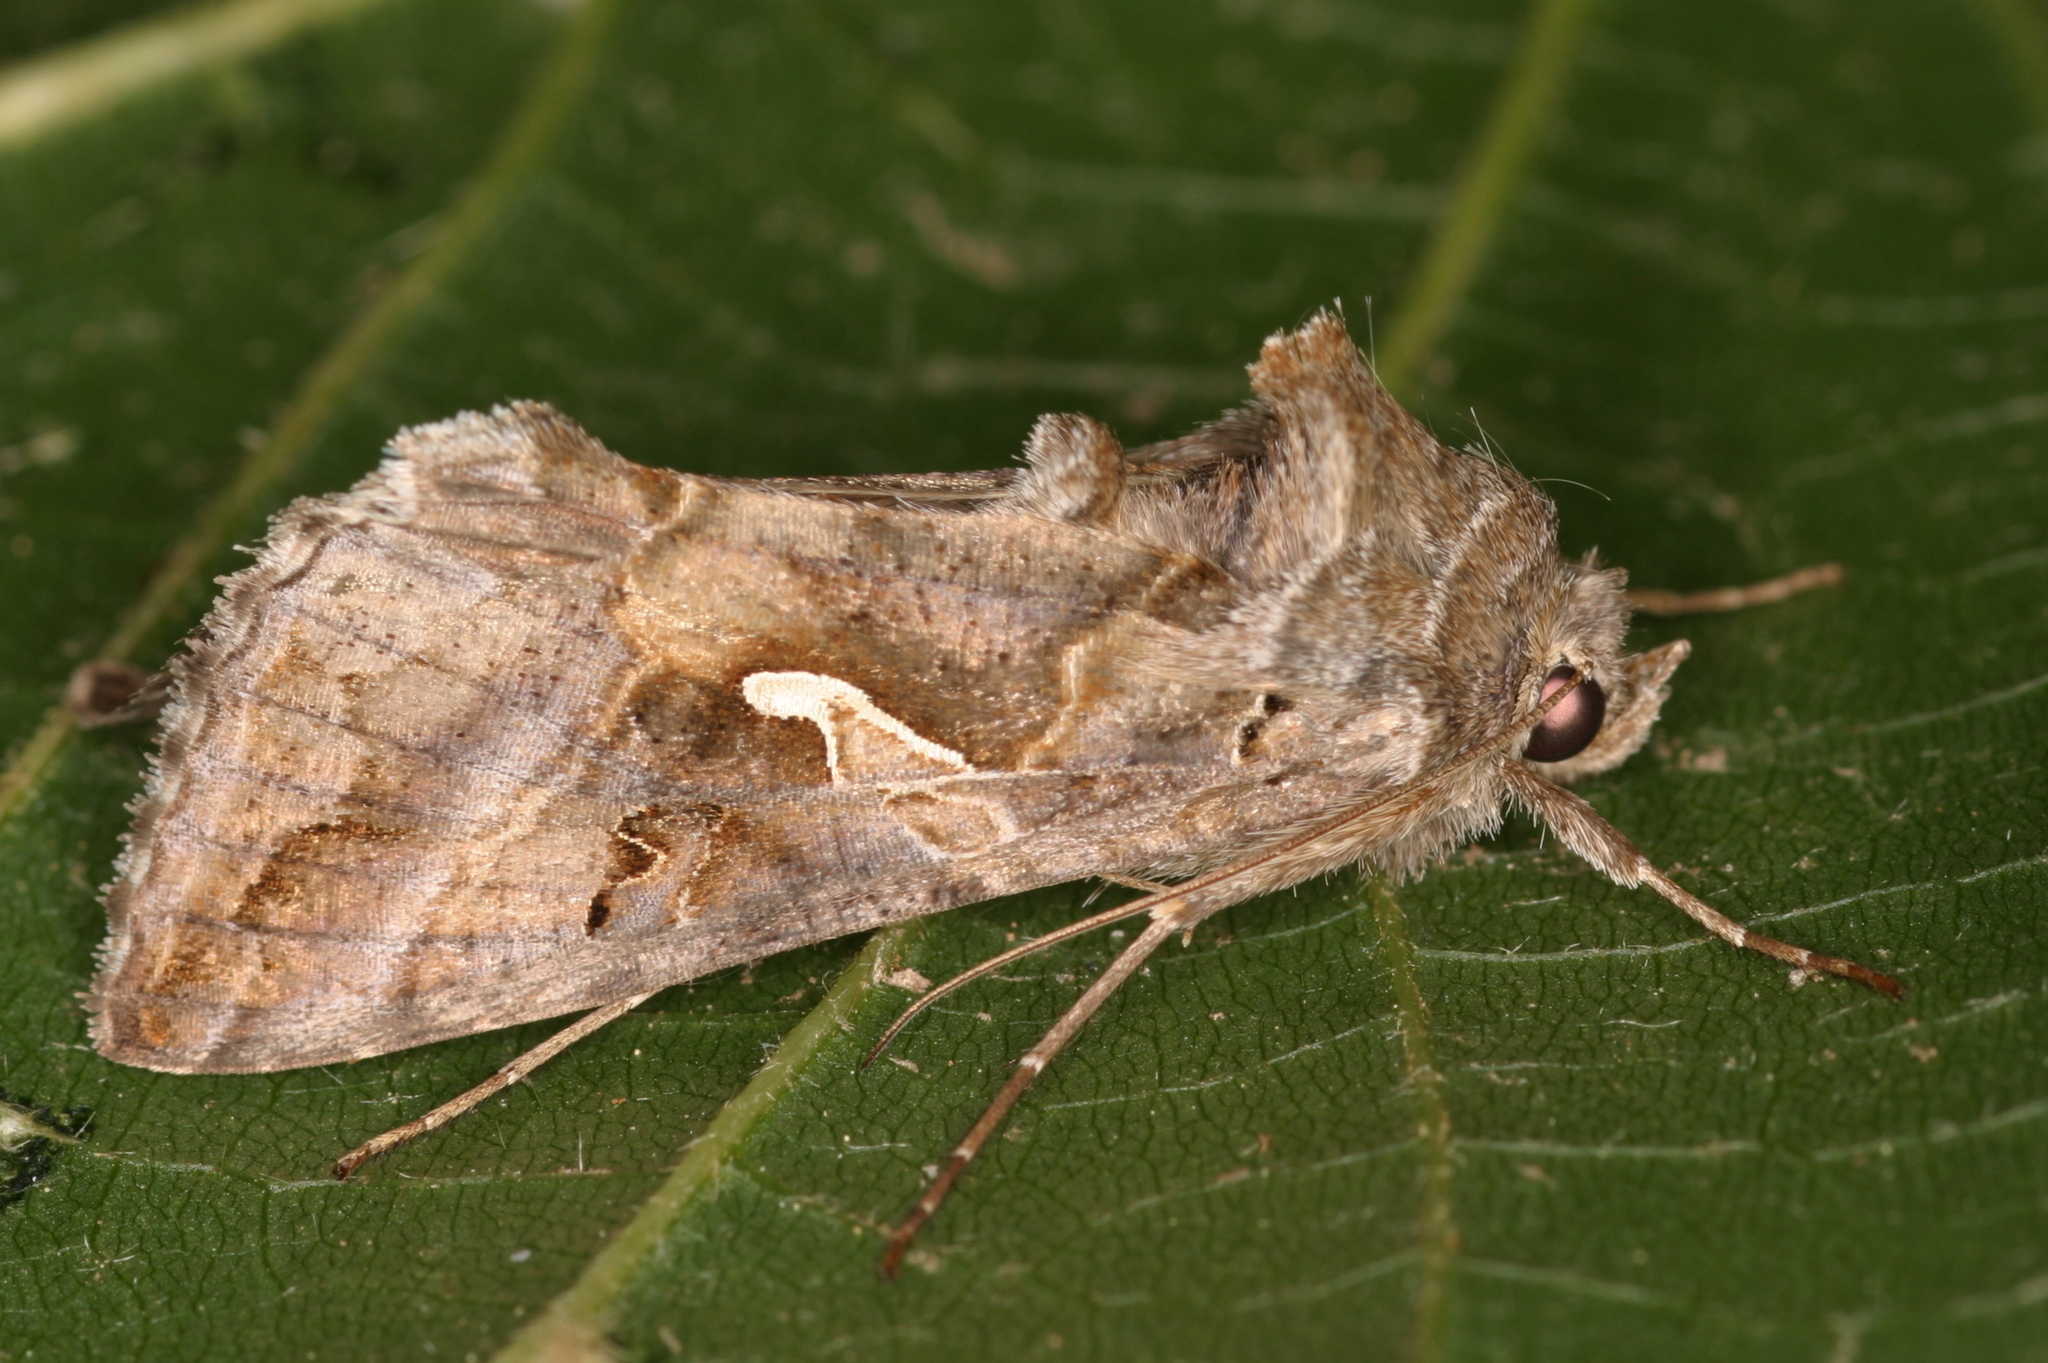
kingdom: Animalia
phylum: Arthropoda
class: Insecta
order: Lepidoptera
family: Noctuidae
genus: Autographa
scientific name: Autographa gamma
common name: Silver y
